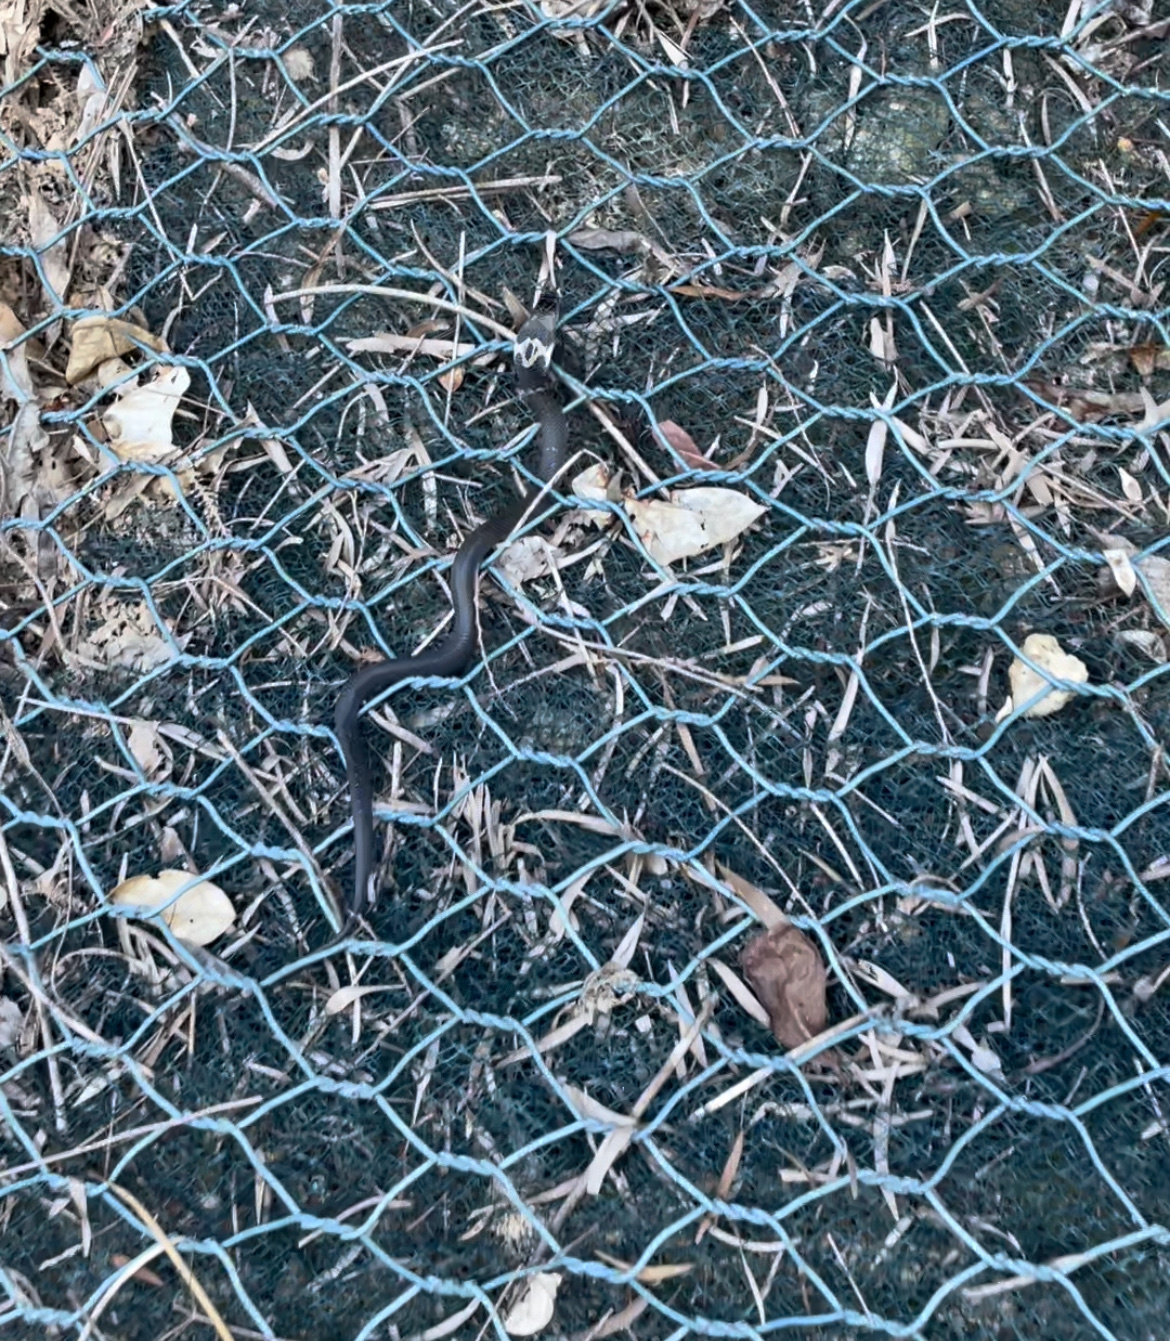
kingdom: Animalia
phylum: Chordata
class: Squamata
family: Elapidae
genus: Naja
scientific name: Naja atra
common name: Chinese cobra
